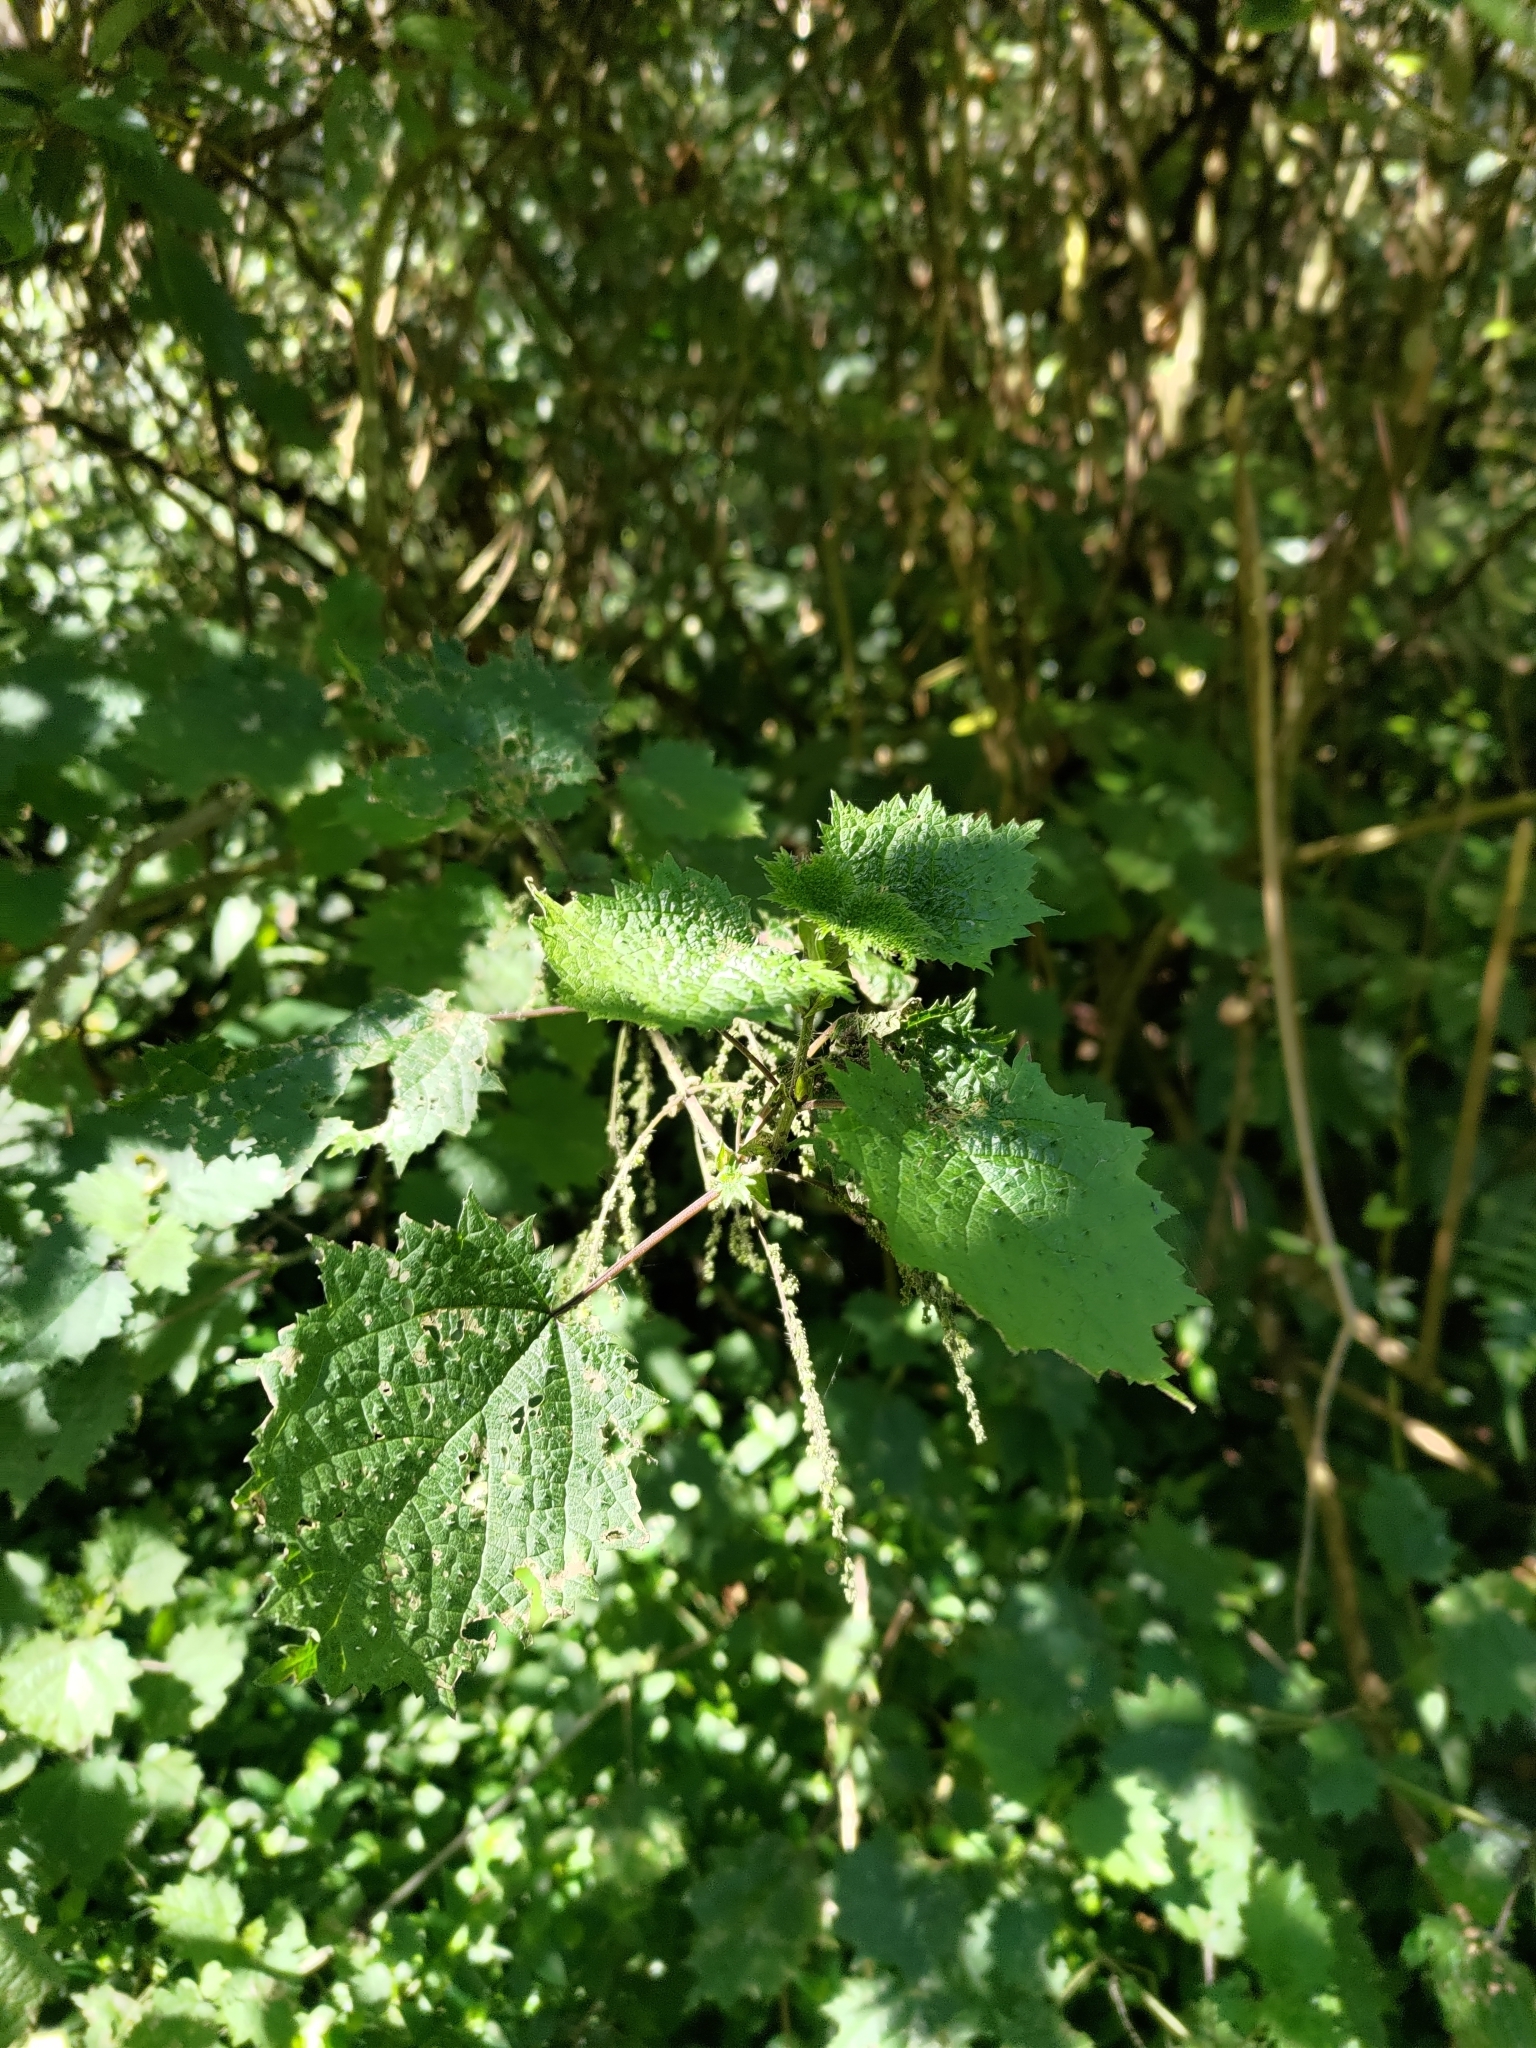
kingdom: Plantae
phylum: Tracheophyta
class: Magnoliopsida
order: Rosales
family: Urticaceae
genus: Urtica
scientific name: Urtica thunbergiana
